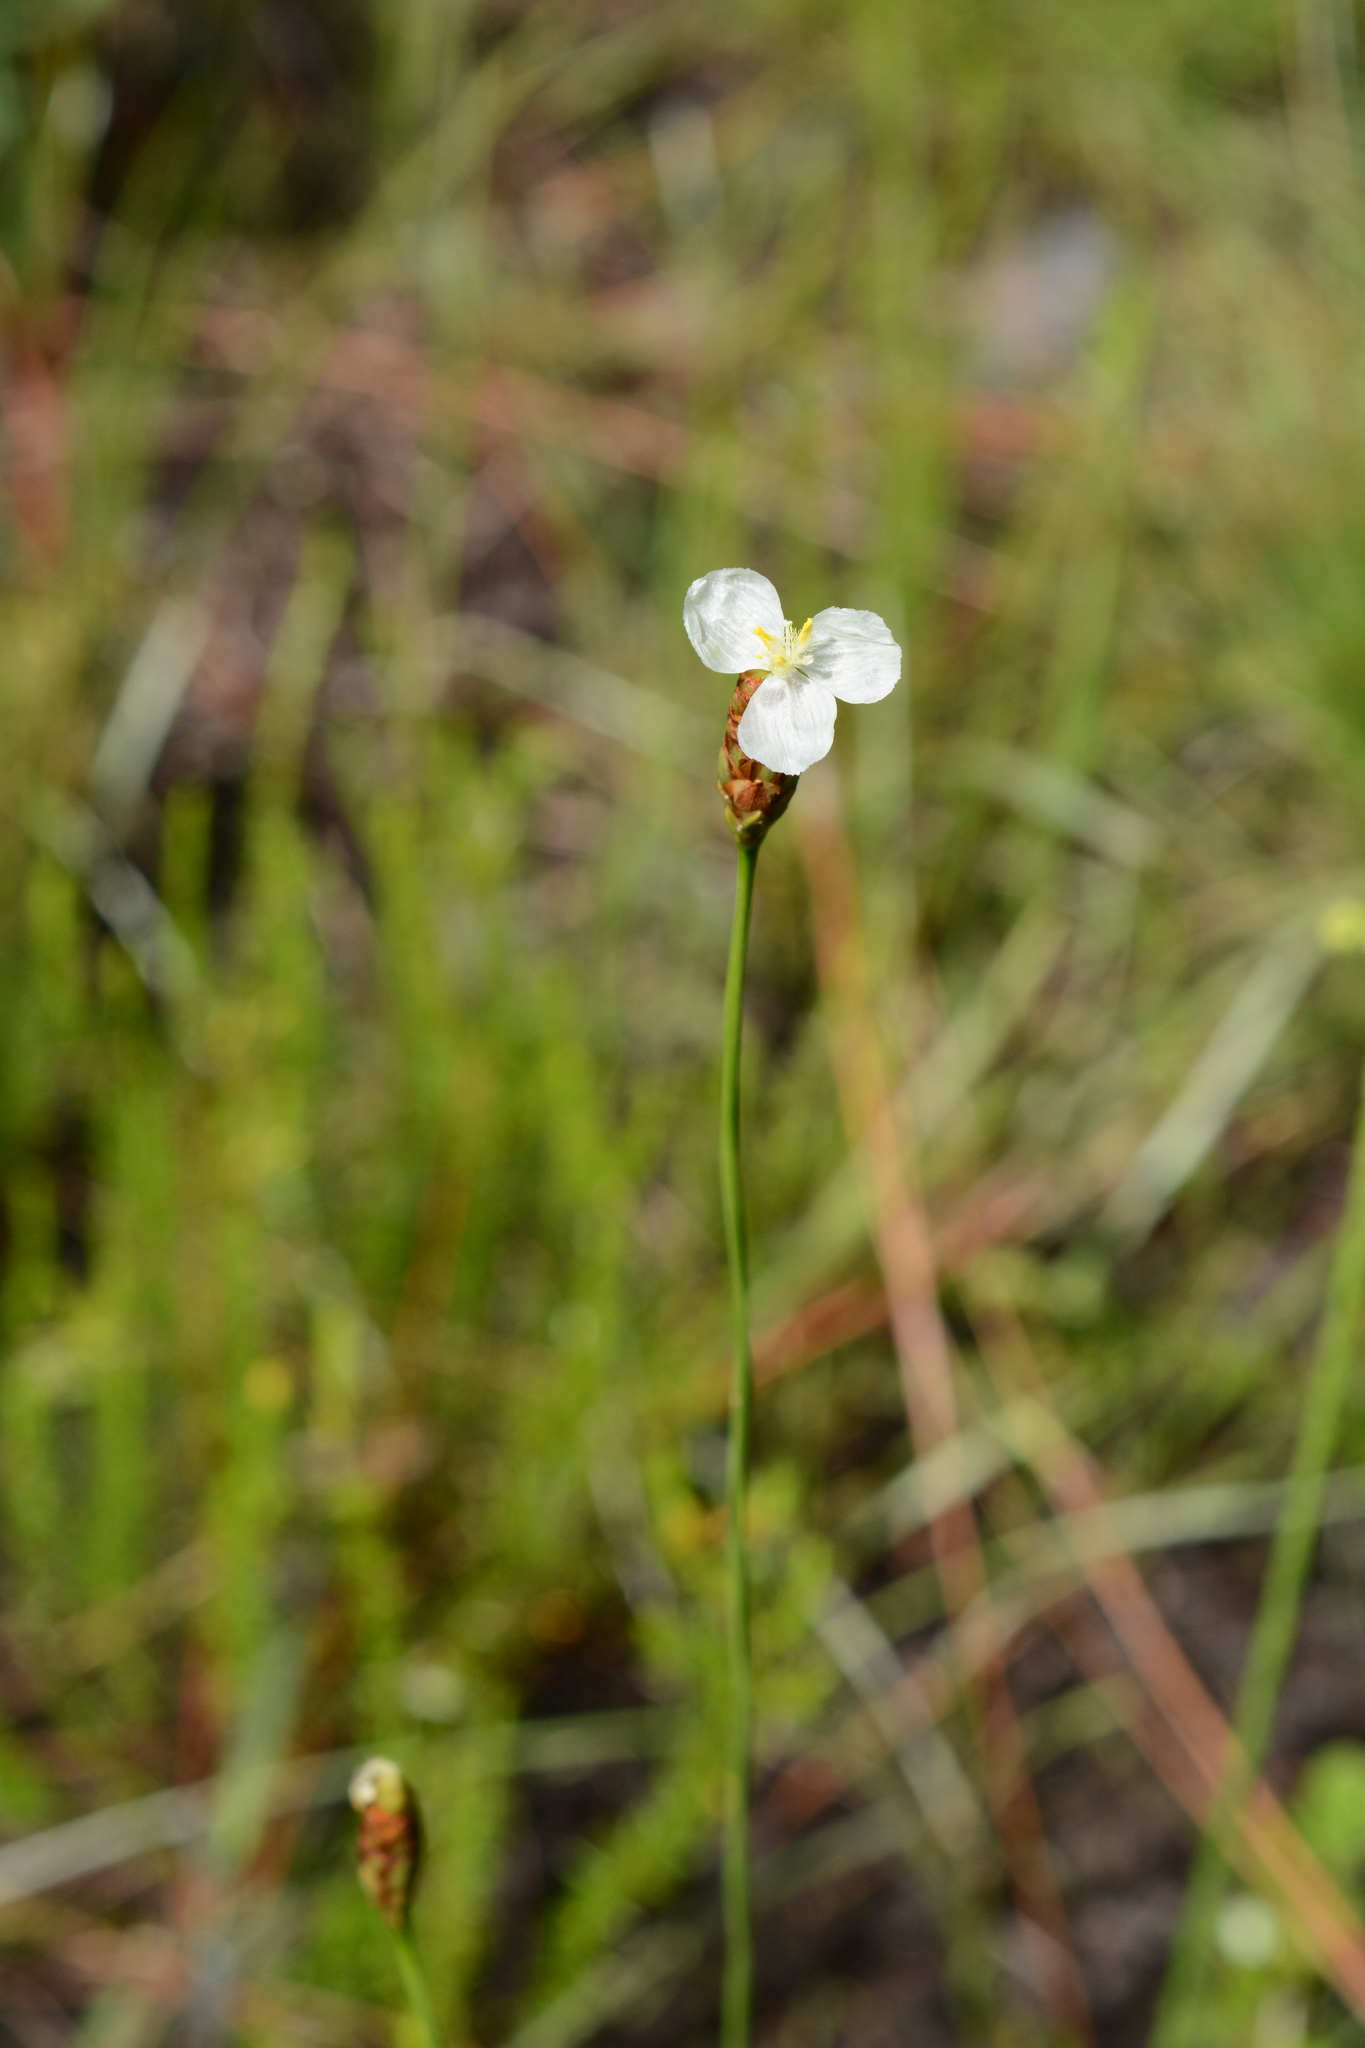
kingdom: Plantae
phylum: Tracheophyta
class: Liliopsida
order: Poales
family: Xyridaceae
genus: Xyris
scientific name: Xyris caroliniana
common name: Carolina yellow-eyed-grass
